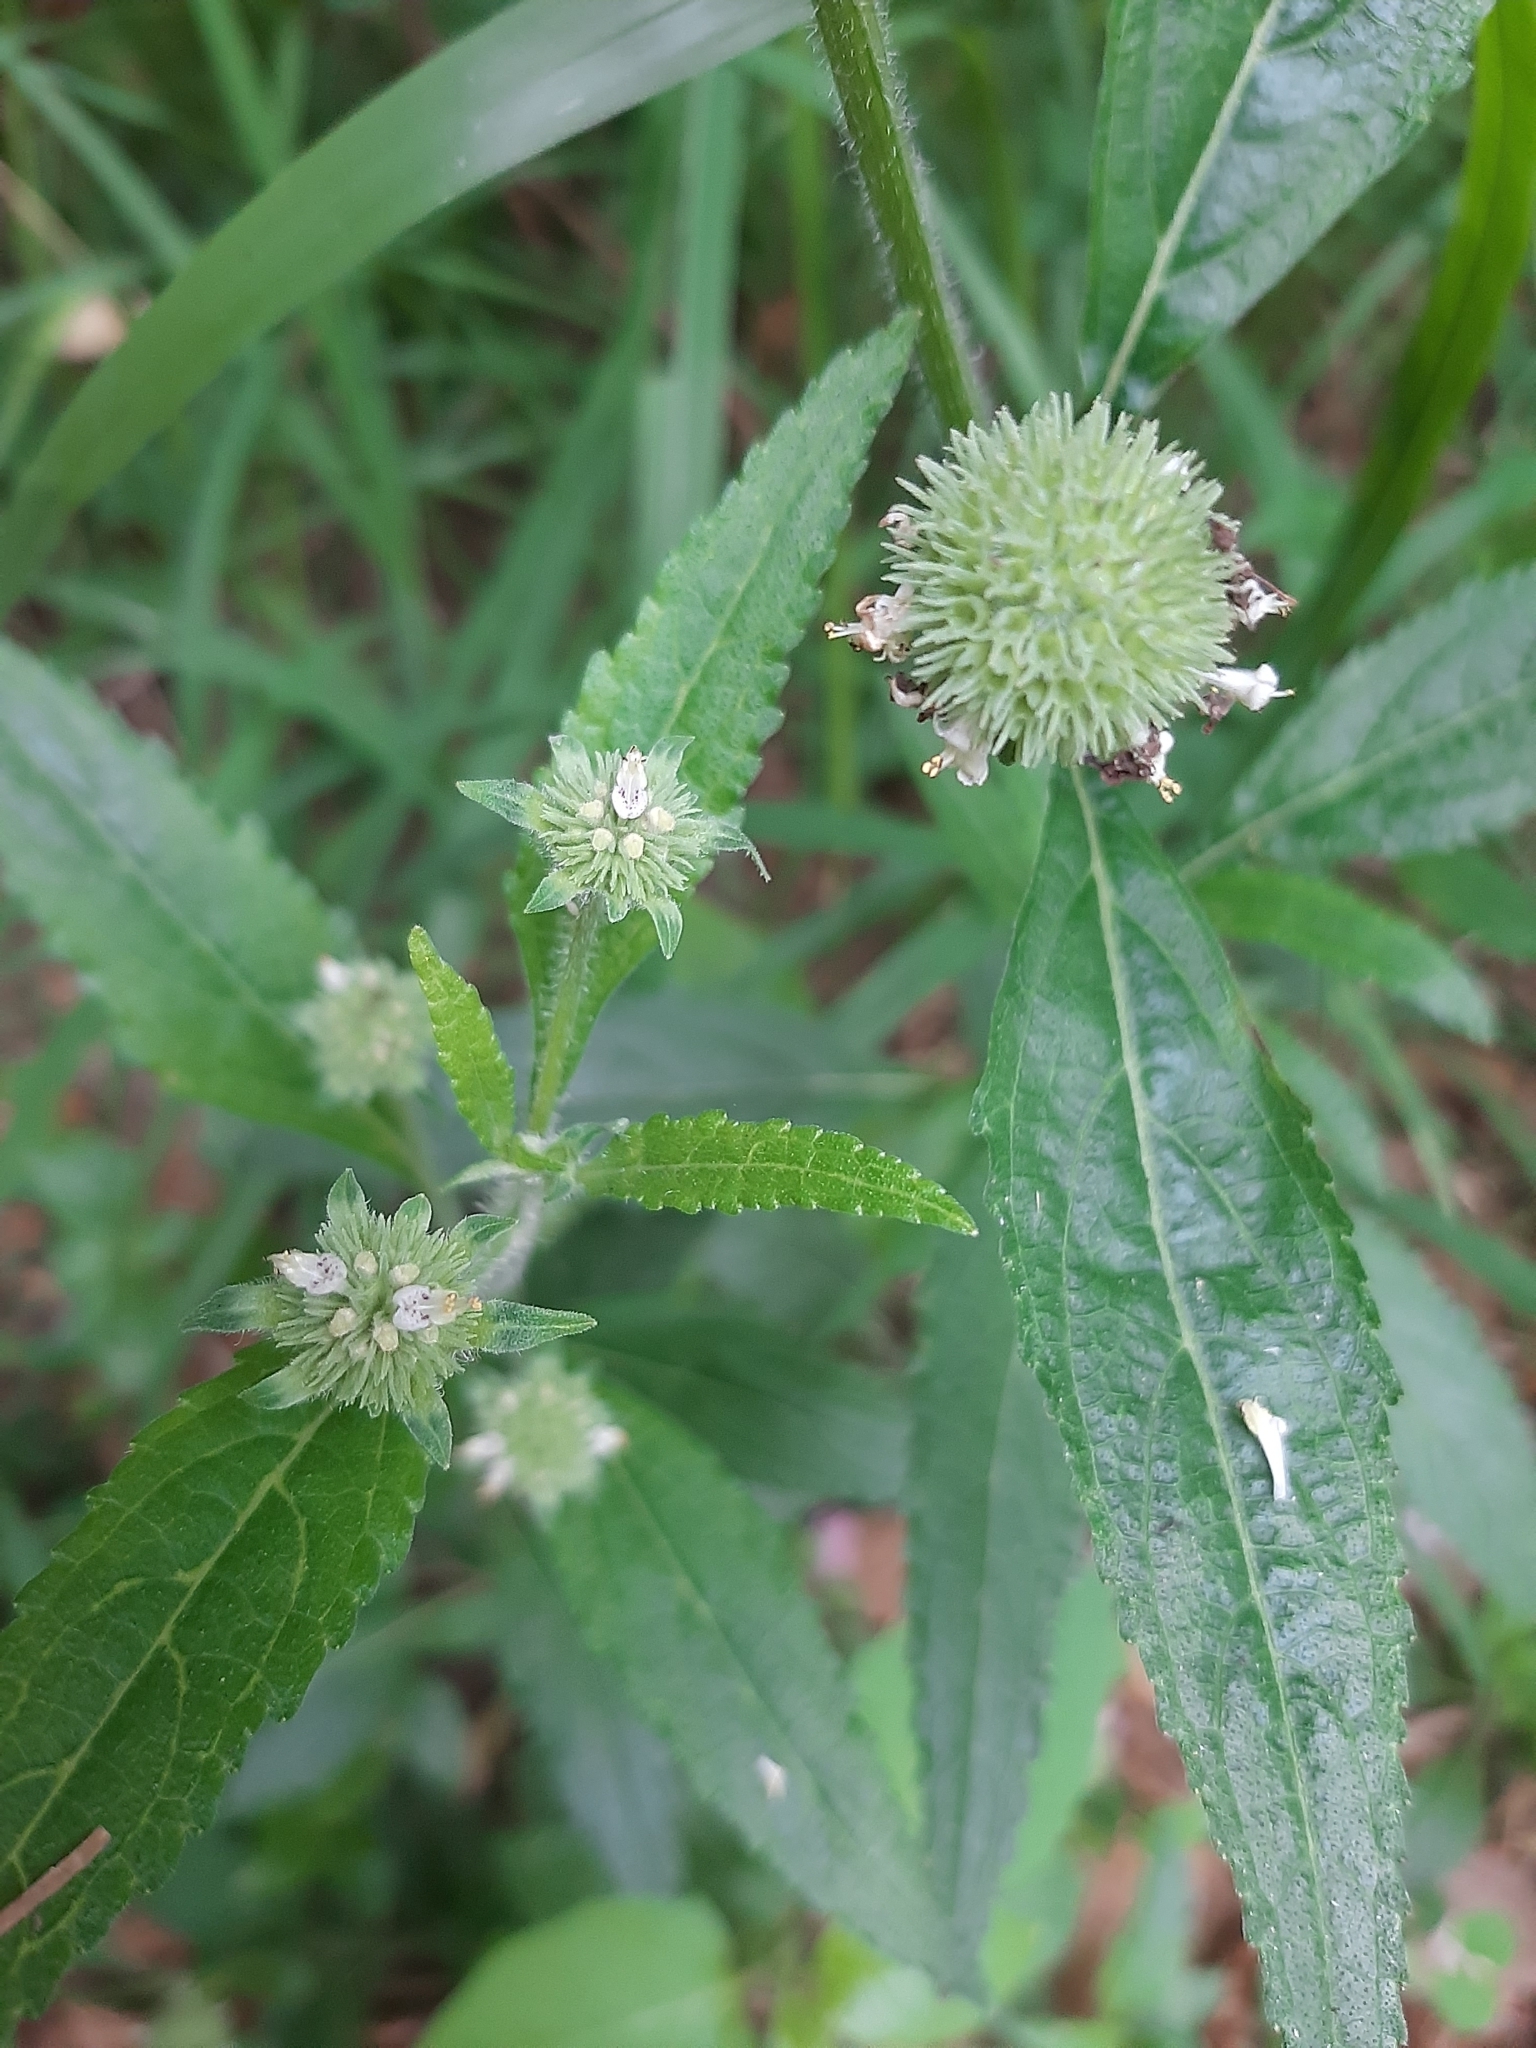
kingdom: Plantae
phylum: Tracheophyta
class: Magnoliopsida
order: Lamiales
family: Lamiaceae
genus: Hyptis
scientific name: Hyptis capitata
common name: False ironwort
